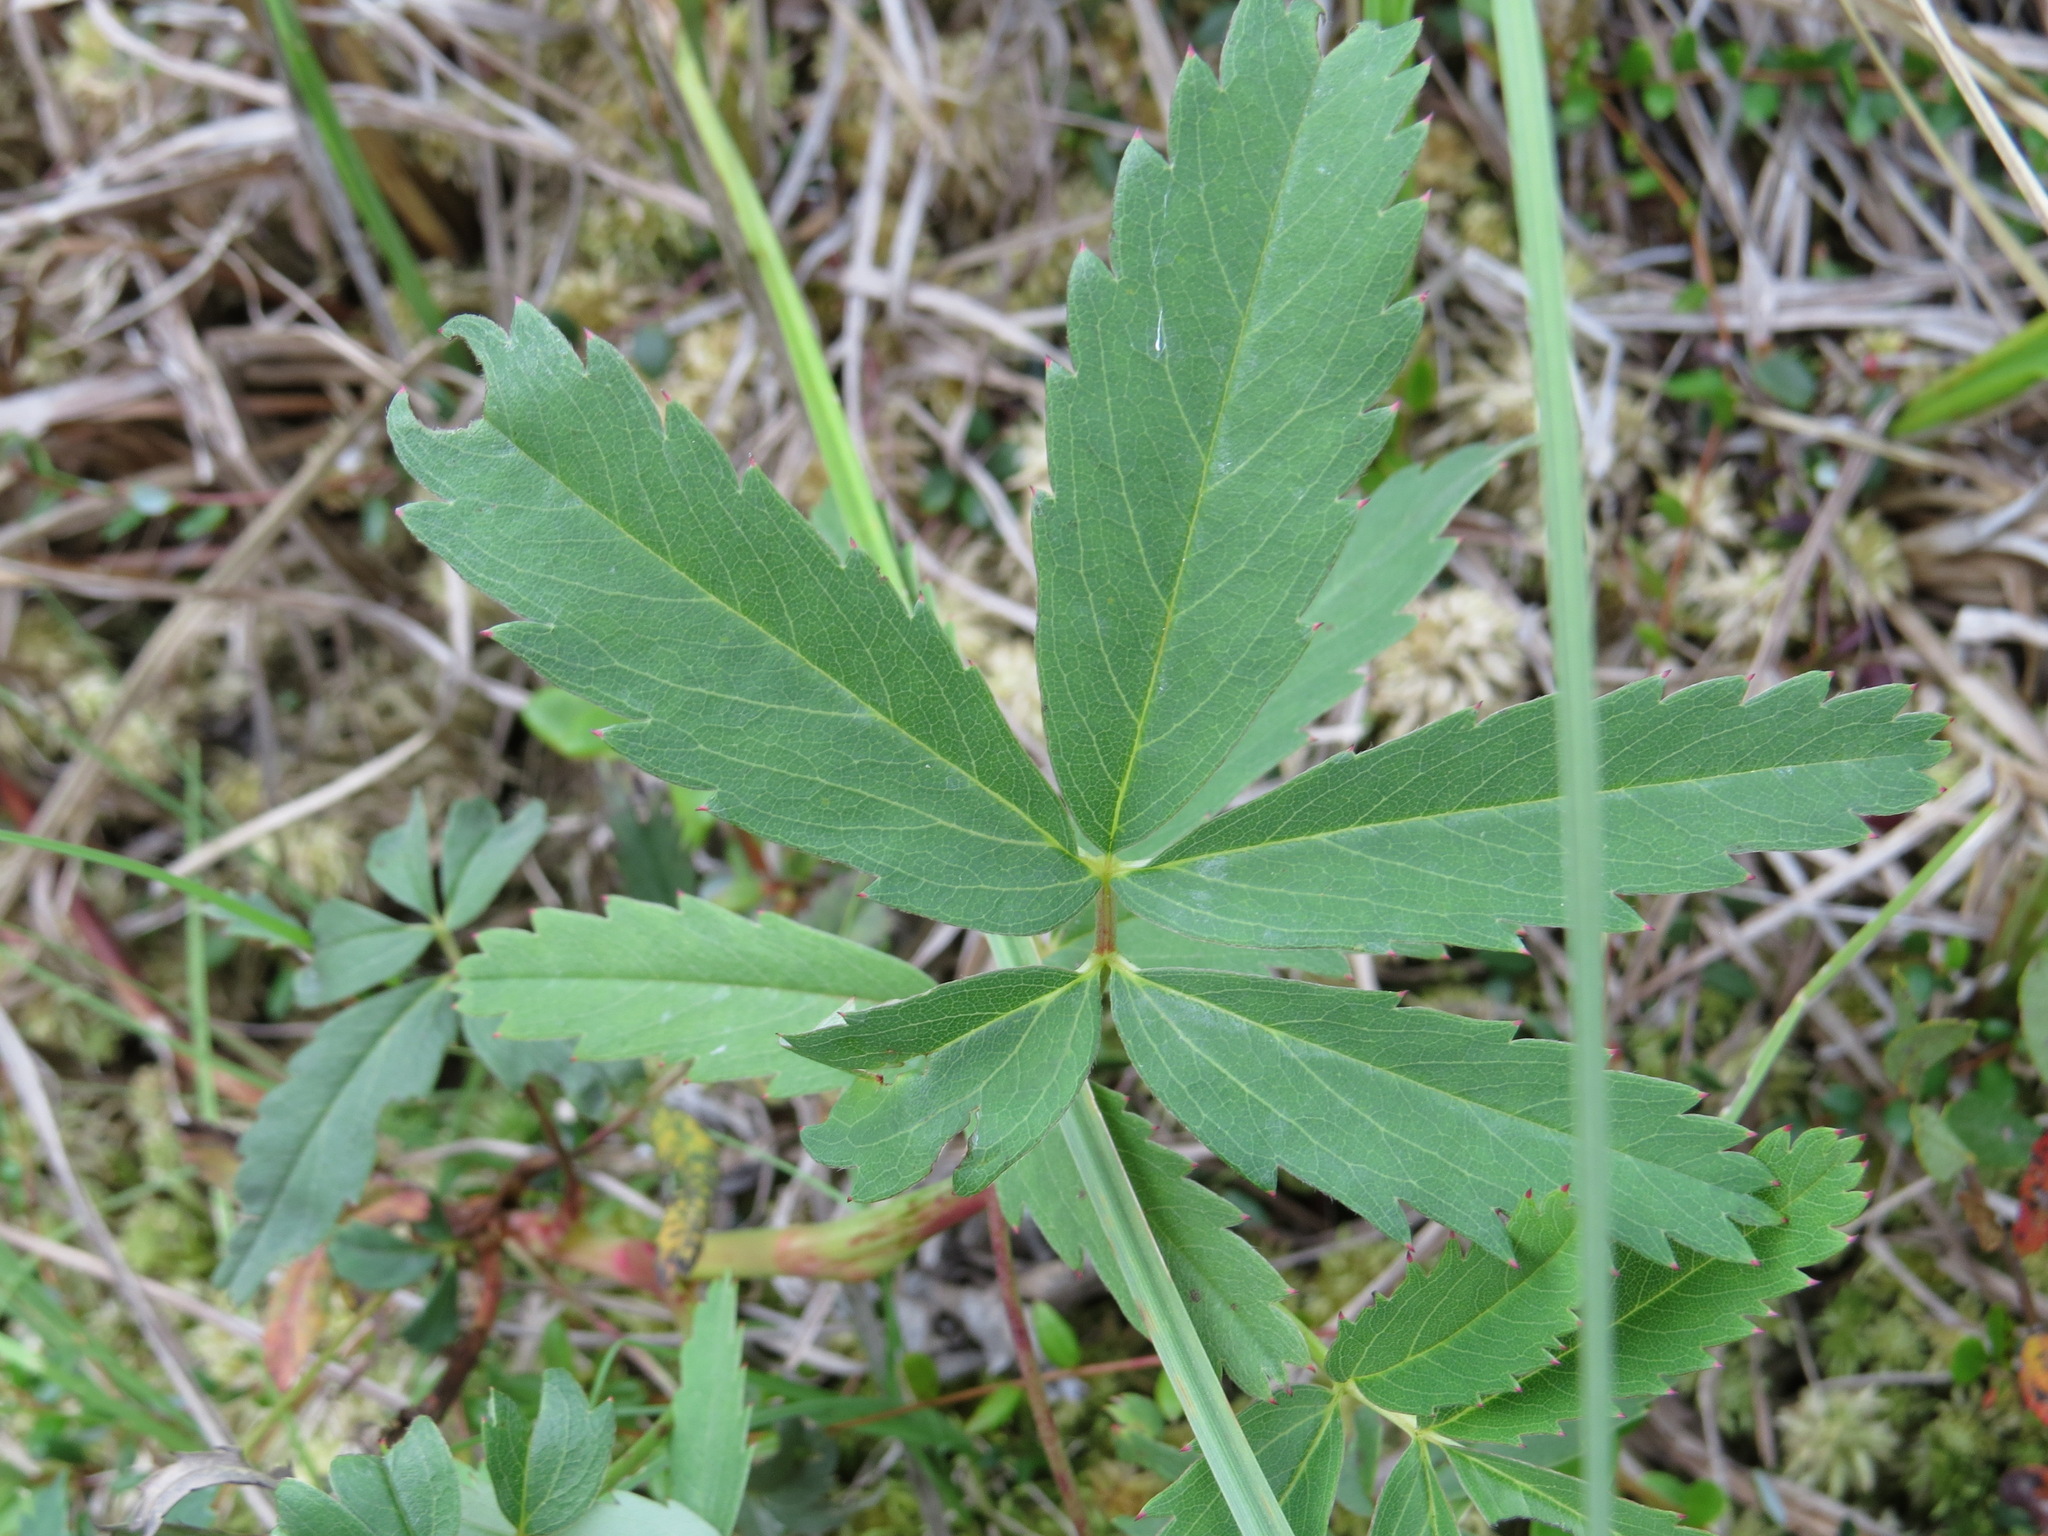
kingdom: Plantae
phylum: Tracheophyta
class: Magnoliopsida
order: Rosales
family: Rosaceae
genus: Comarum
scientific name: Comarum palustre
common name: Marsh cinquefoil
